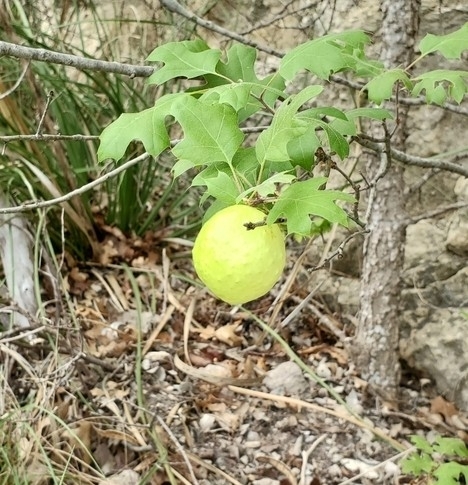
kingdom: Animalia
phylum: Arthropoda
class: Insecta
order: Hymenoptera
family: Cynipidae
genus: Amphibolips
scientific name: Amphibolips
